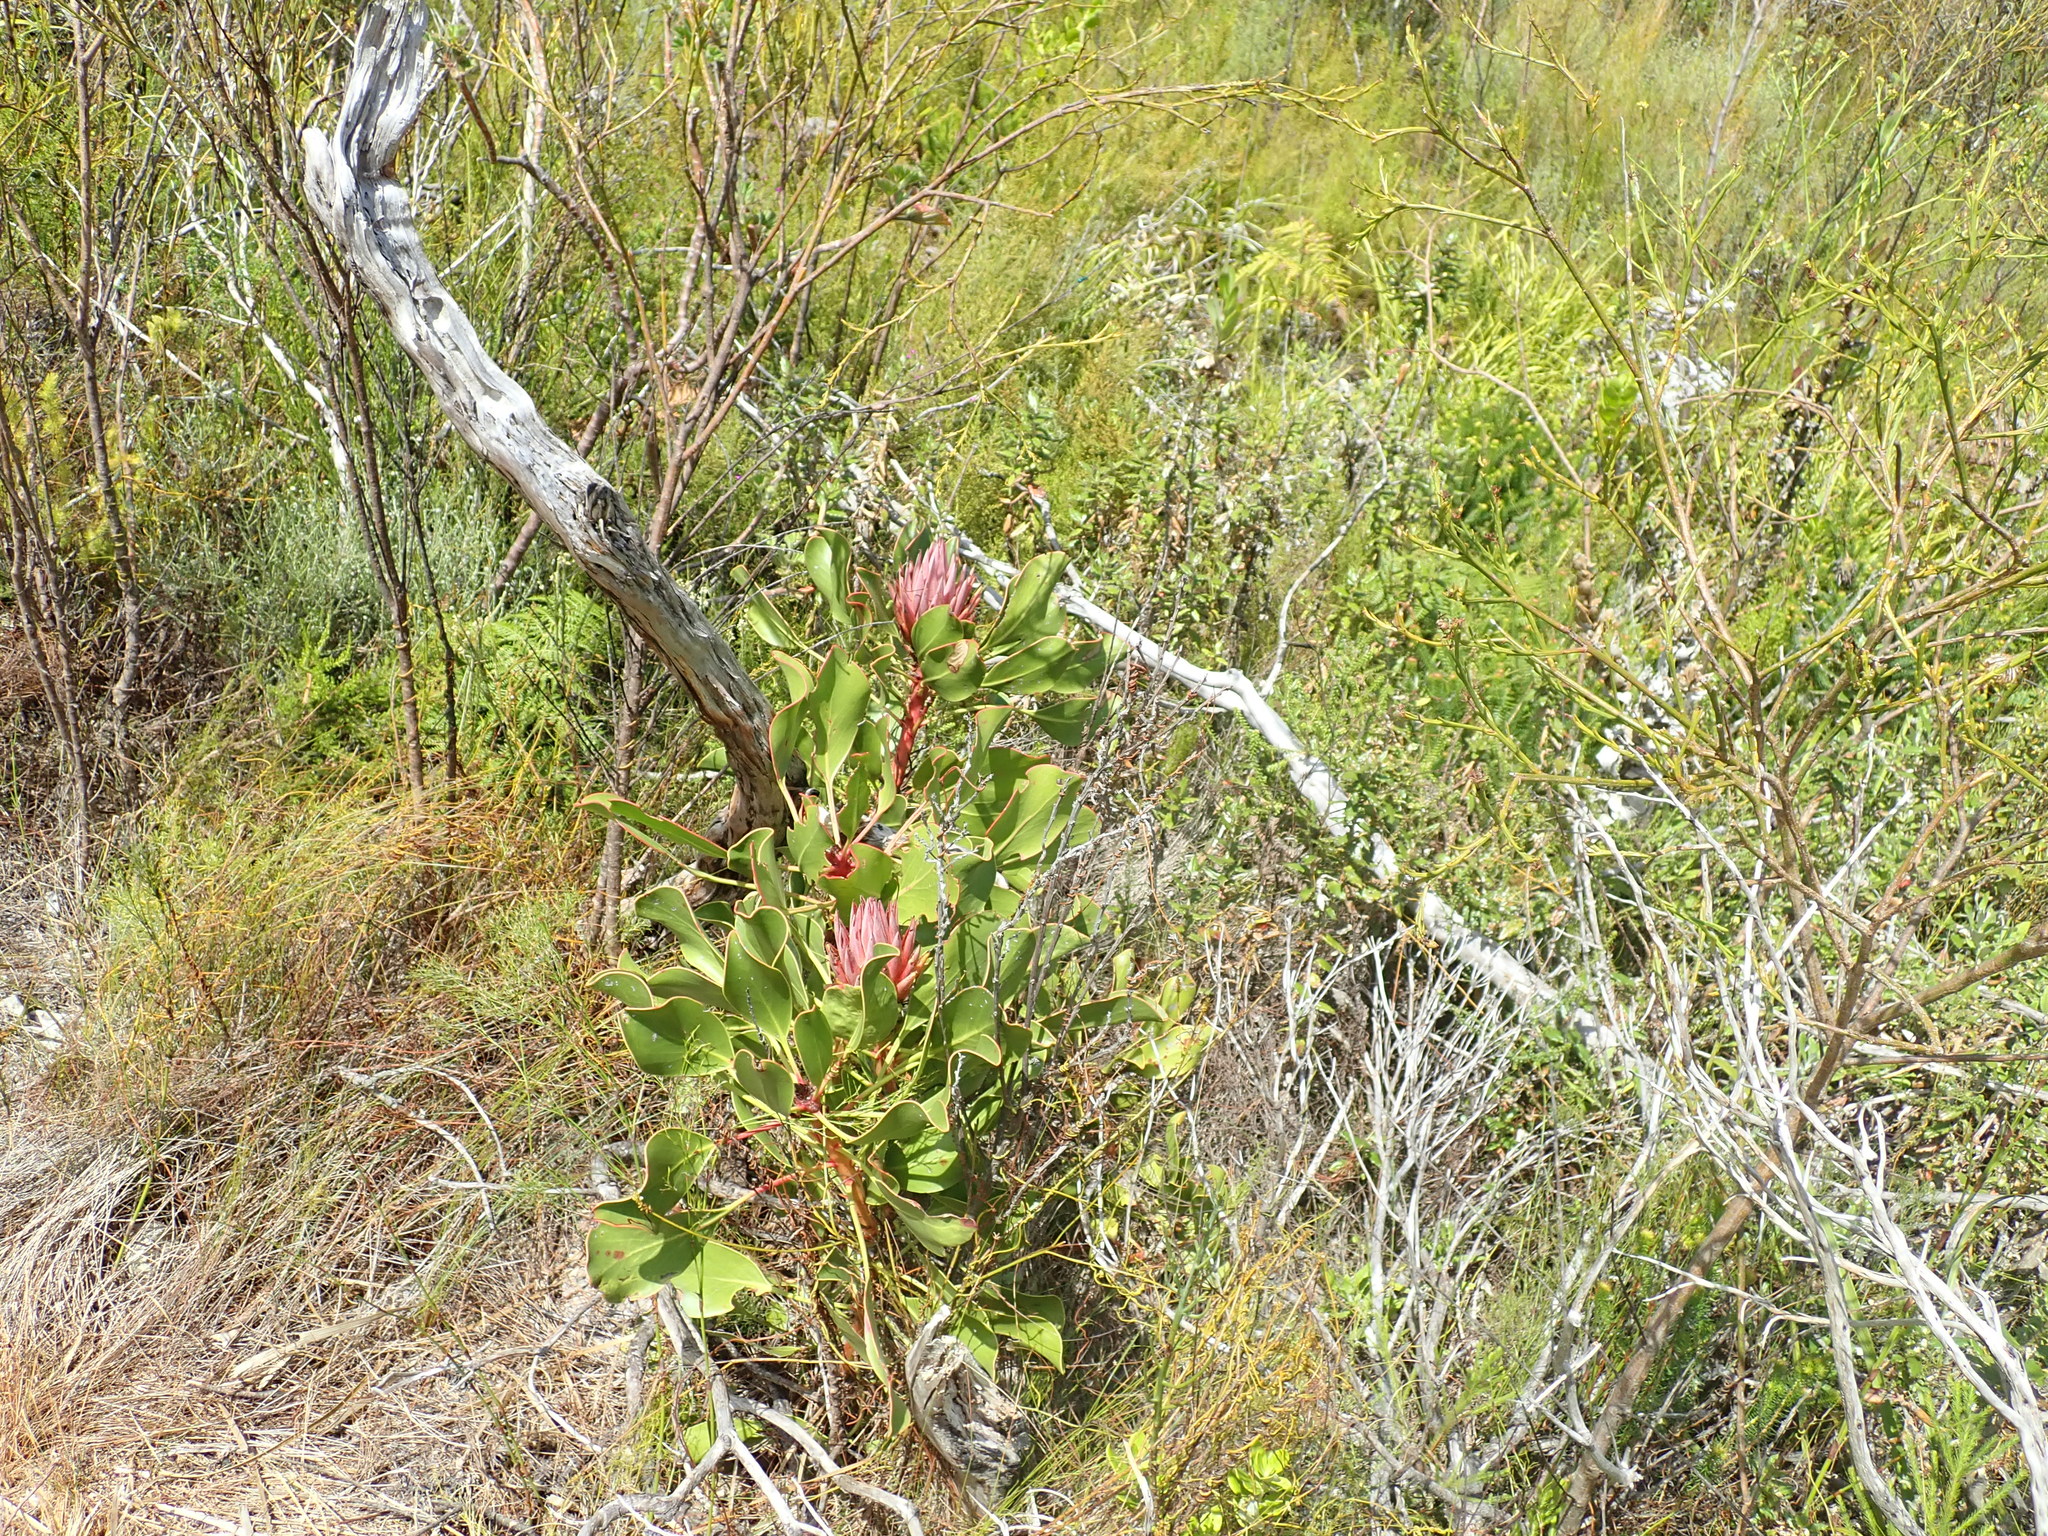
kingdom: Plantae
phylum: Tracheophyta
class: Magnoliopsida
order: Proteales
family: Proteaceae
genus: Protea
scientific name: Protea cynaroides
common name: King protea
